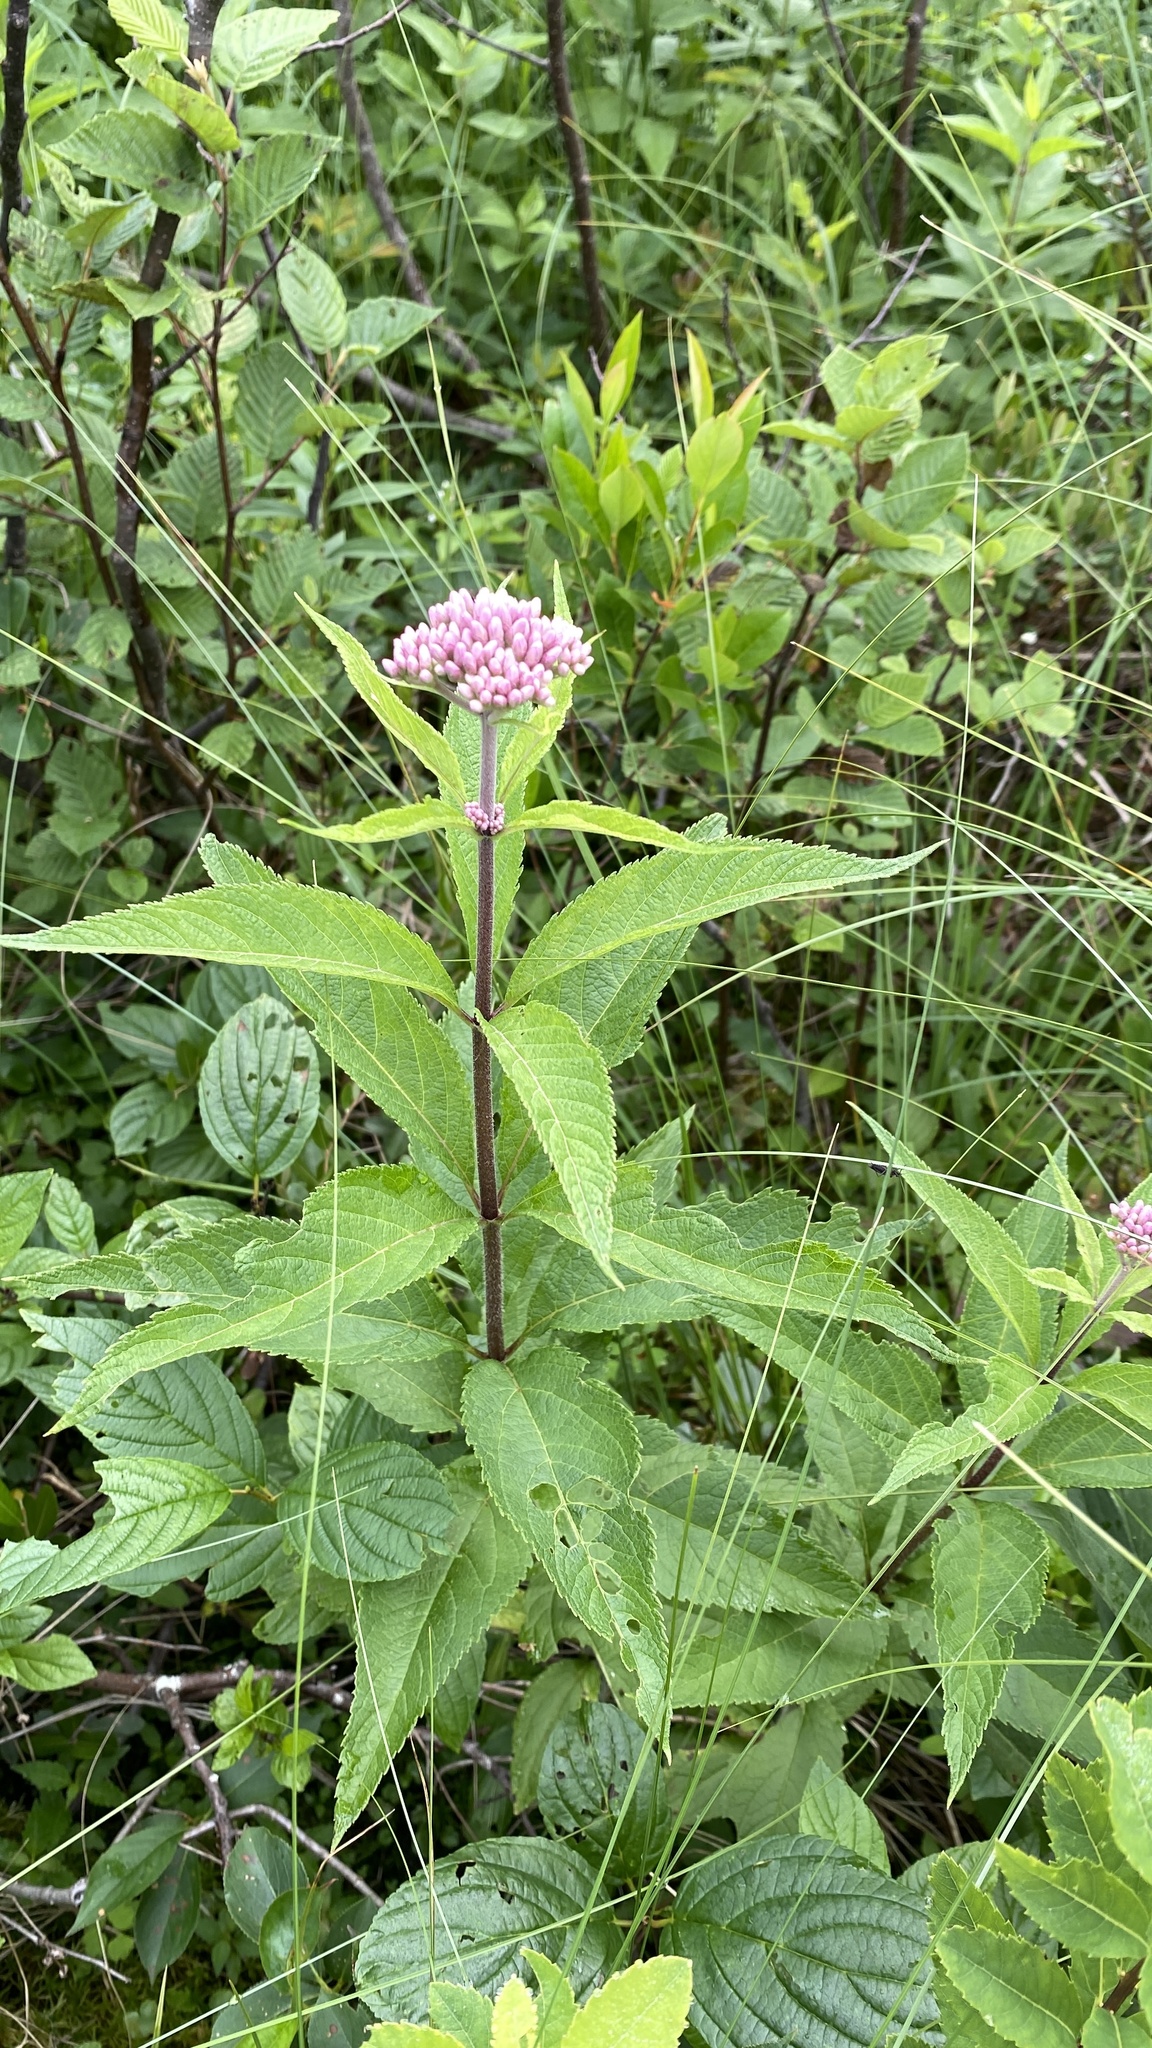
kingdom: Plantae
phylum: Tracheophyta
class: Magnoliopsida
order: Asterales
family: Asteraceae
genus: Eutrochium
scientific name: Eutrochium maculatum
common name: Spotted joe pye weed
